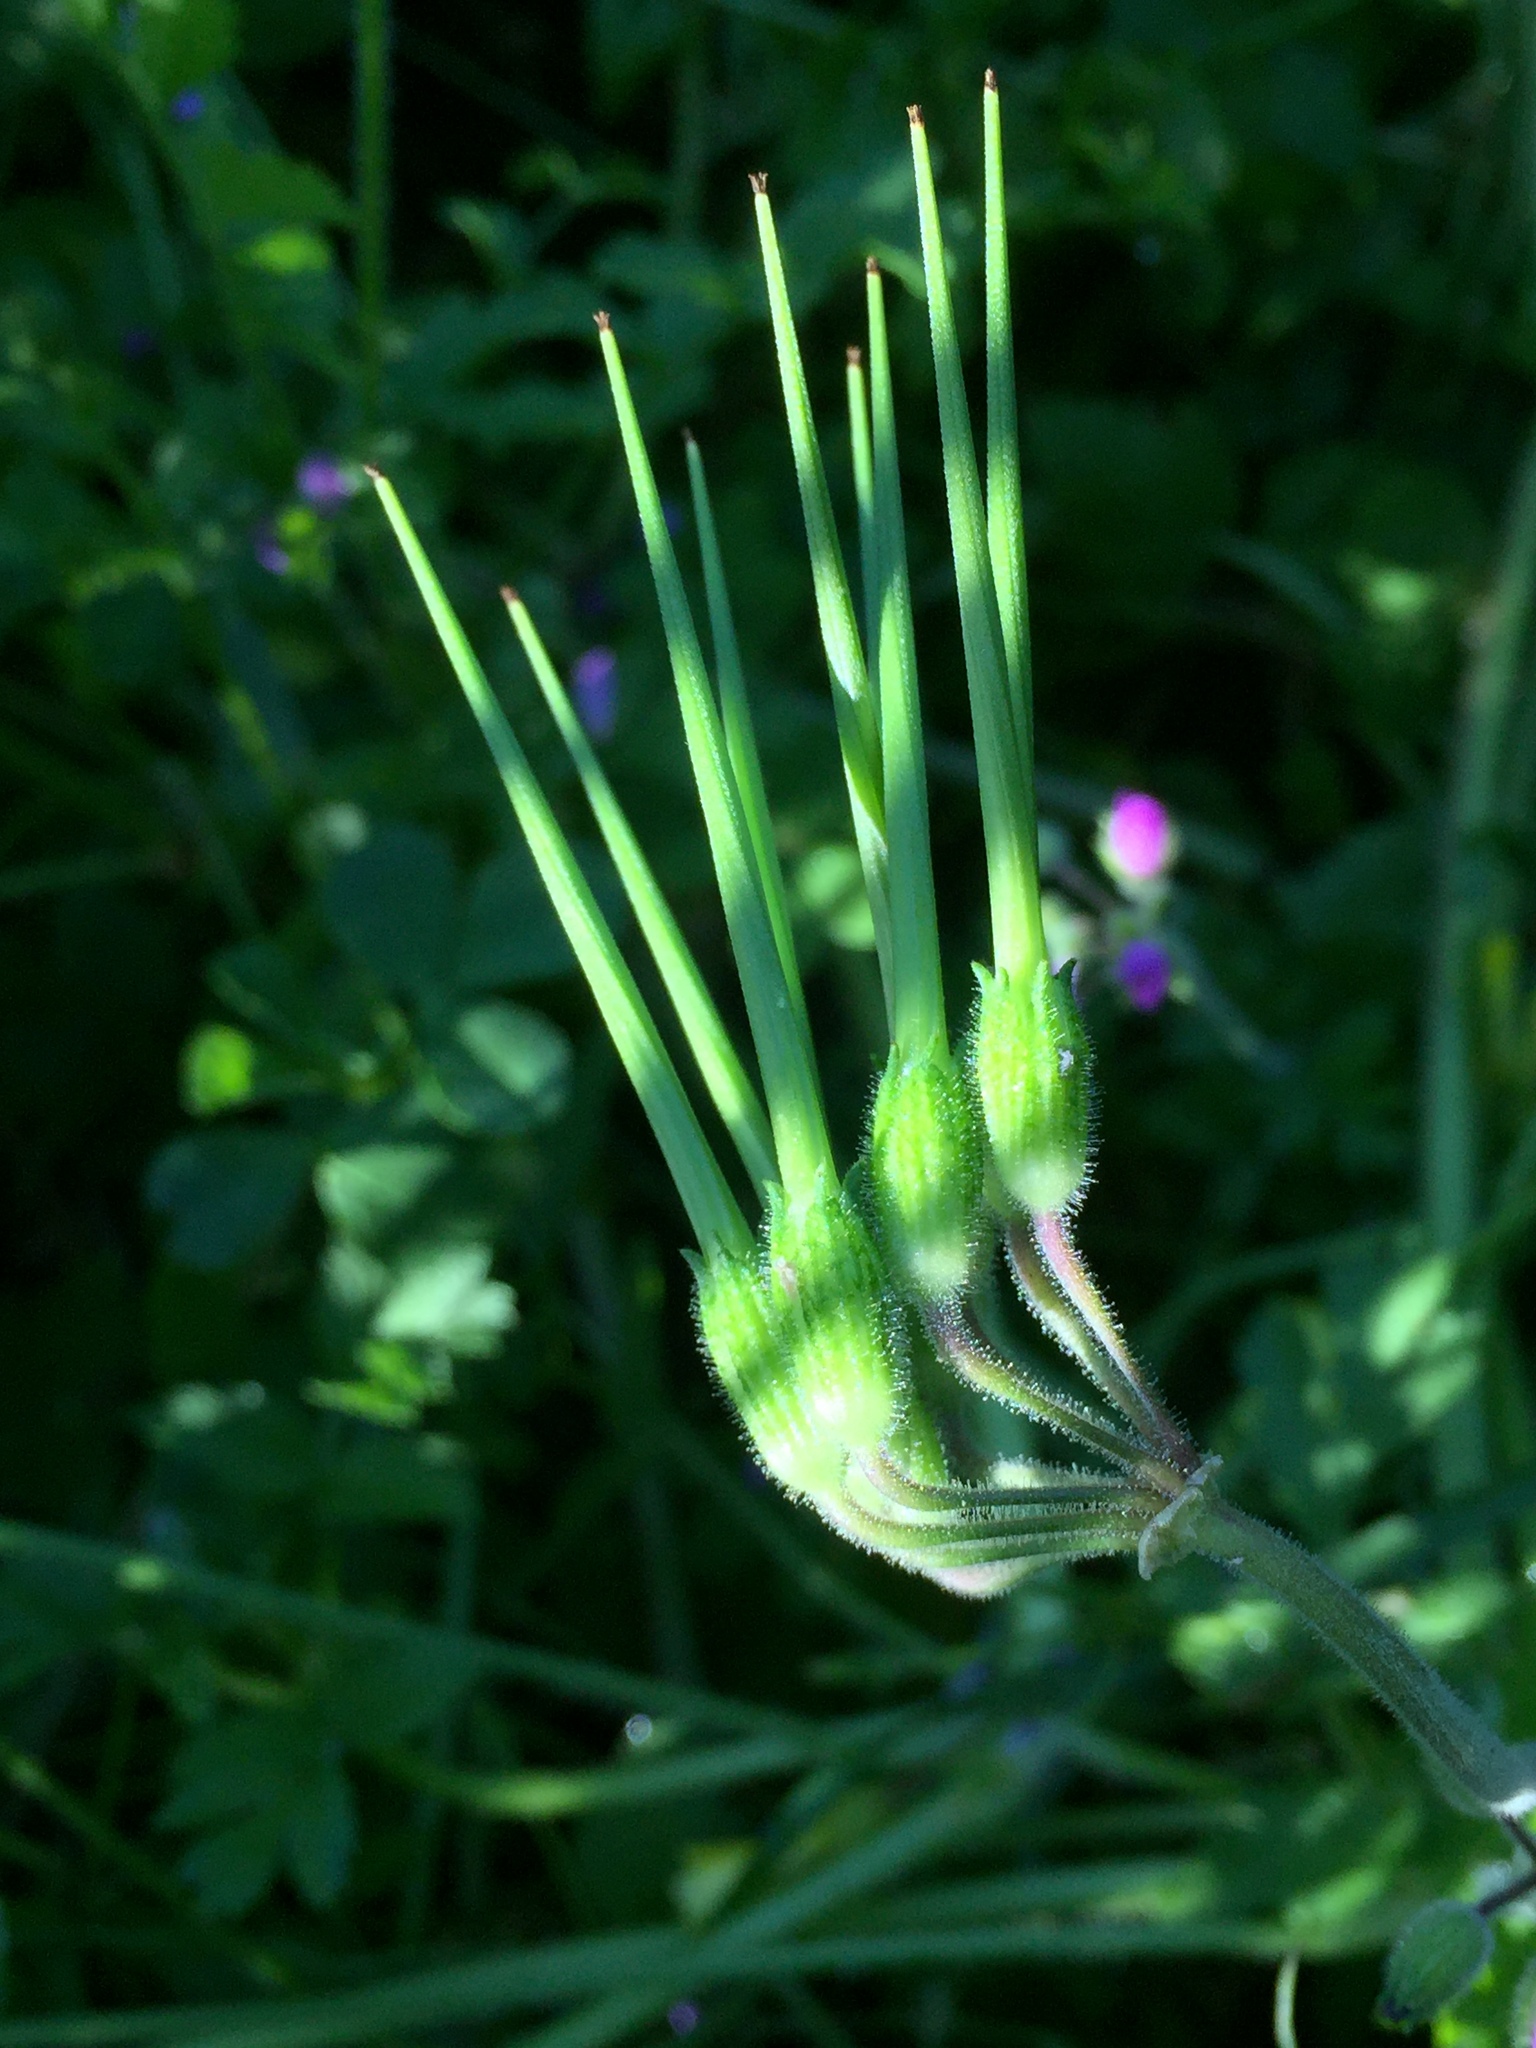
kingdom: Plantae
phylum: Tracheophyta
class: Magnoliopsida
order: Geraniales
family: Geraniaceae
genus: Geranium
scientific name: Geranium dissectum
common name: Cut-leaved crane's-bill
